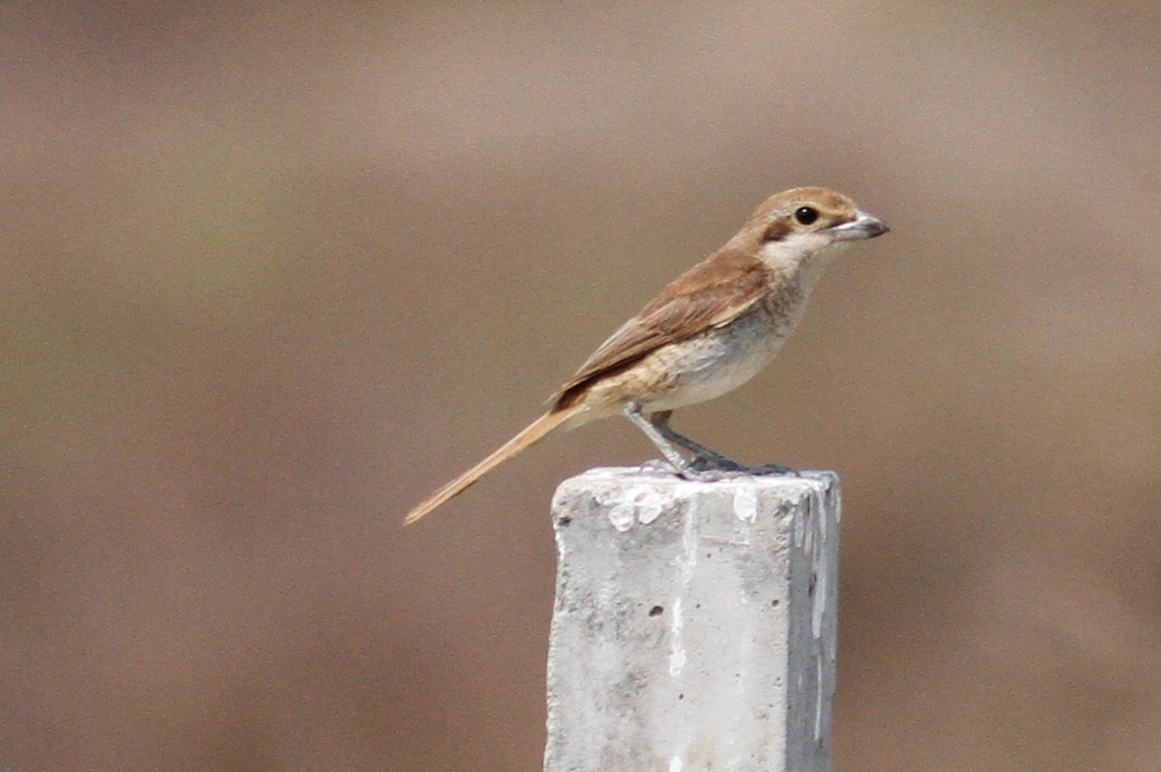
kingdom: Animalia
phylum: Chordata
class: Aves
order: Passeriformes
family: Laniidae
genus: Lanius
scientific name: Lanius cristatus
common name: Brown shrike
